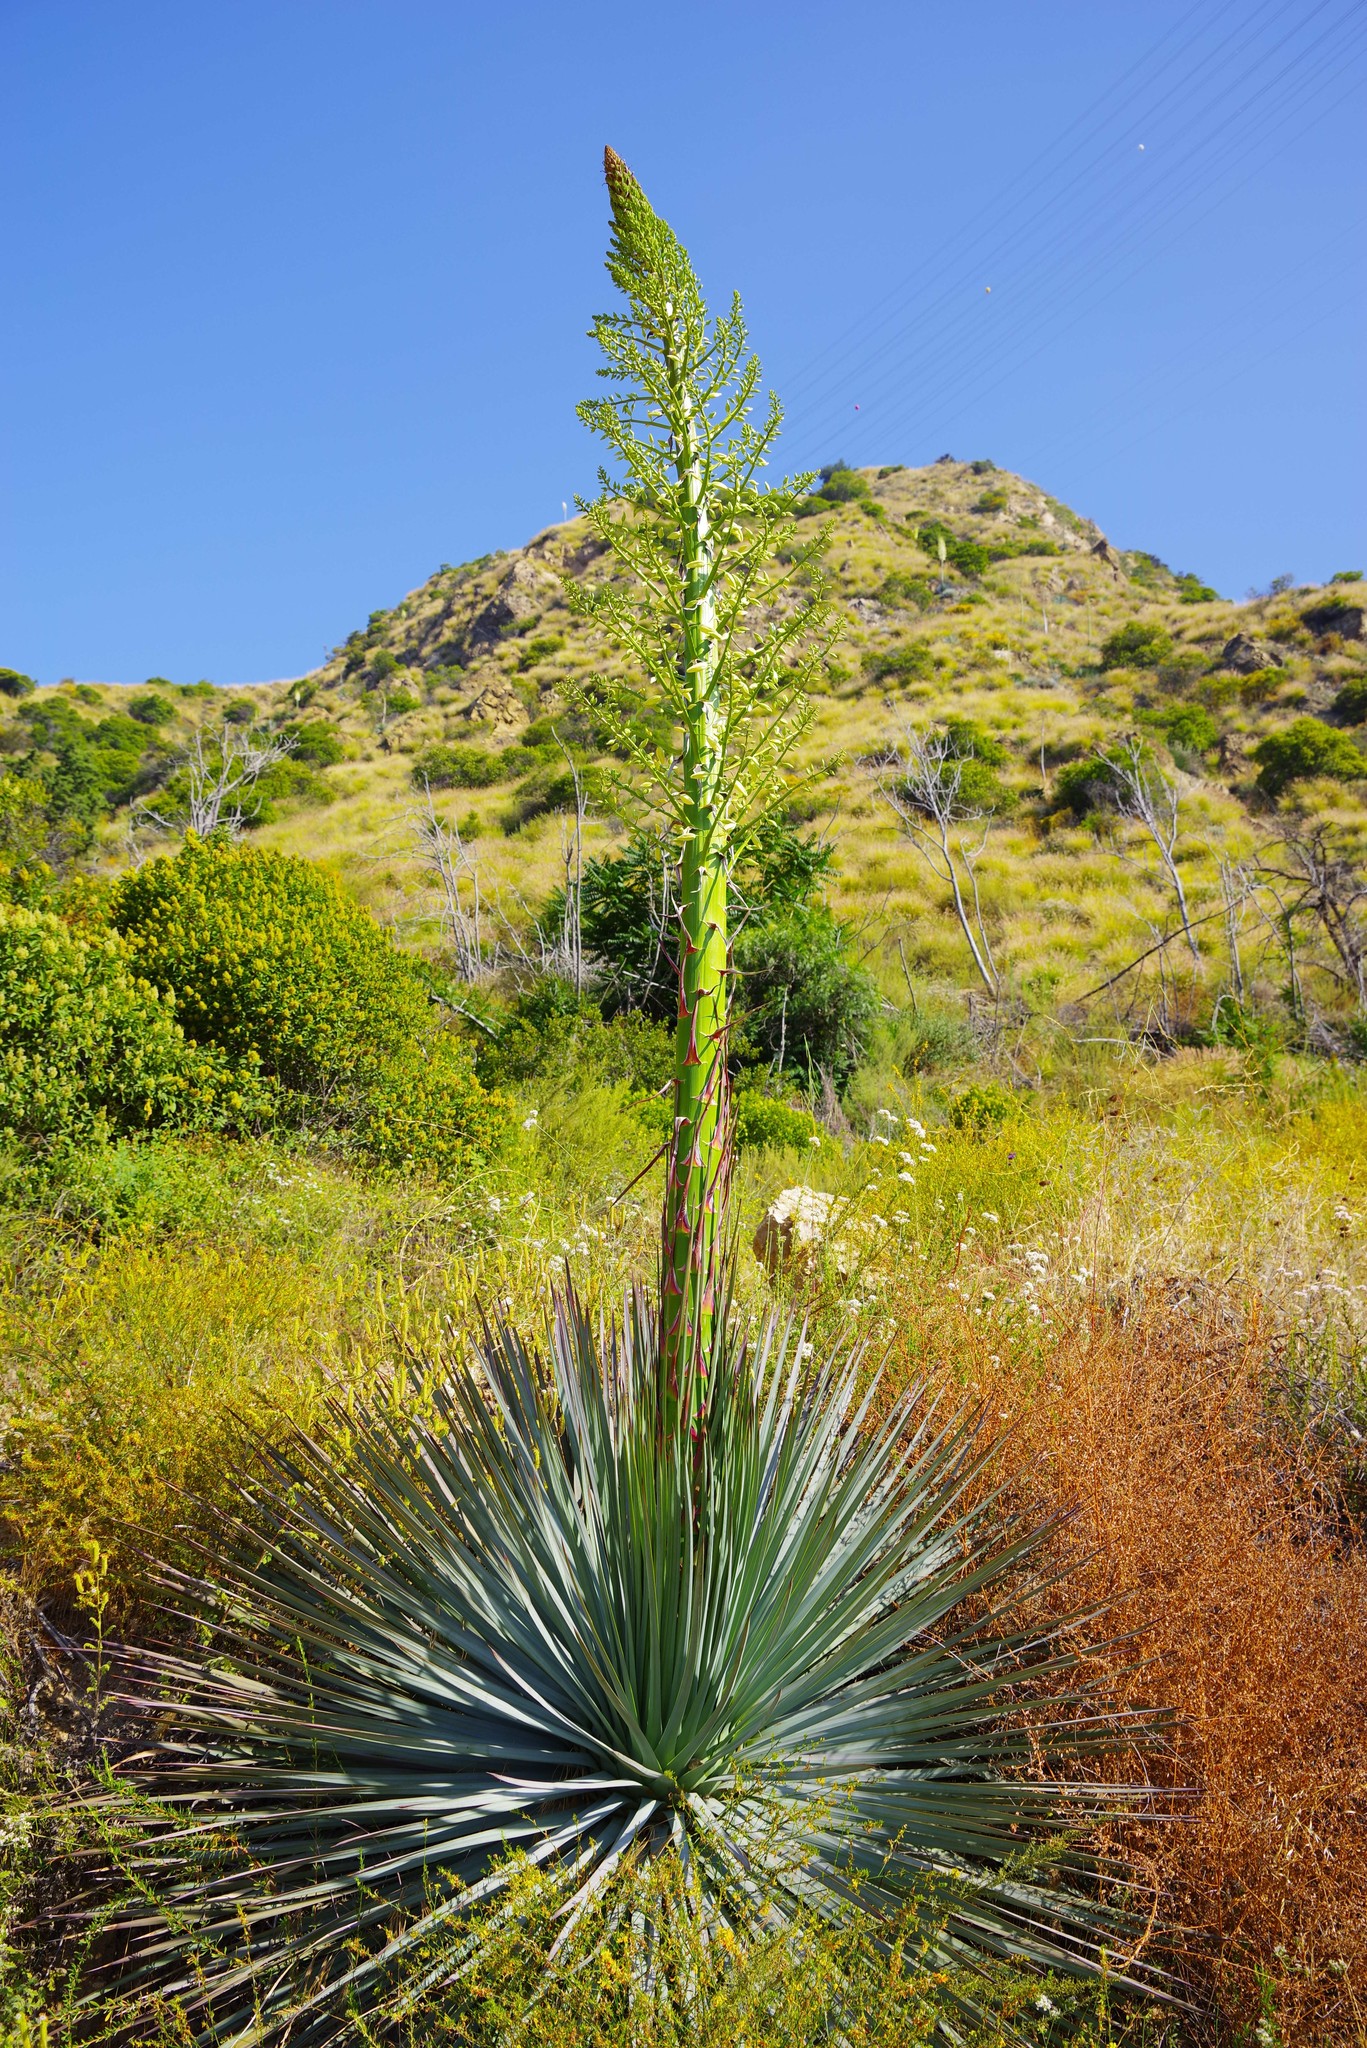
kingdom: Plantae
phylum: Tracheophyta
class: Liliopsida
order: Asparagales
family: Asparagaceae
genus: Hesperoyucca
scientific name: Hesperoyucca whipplei
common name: Our lord's-candle
